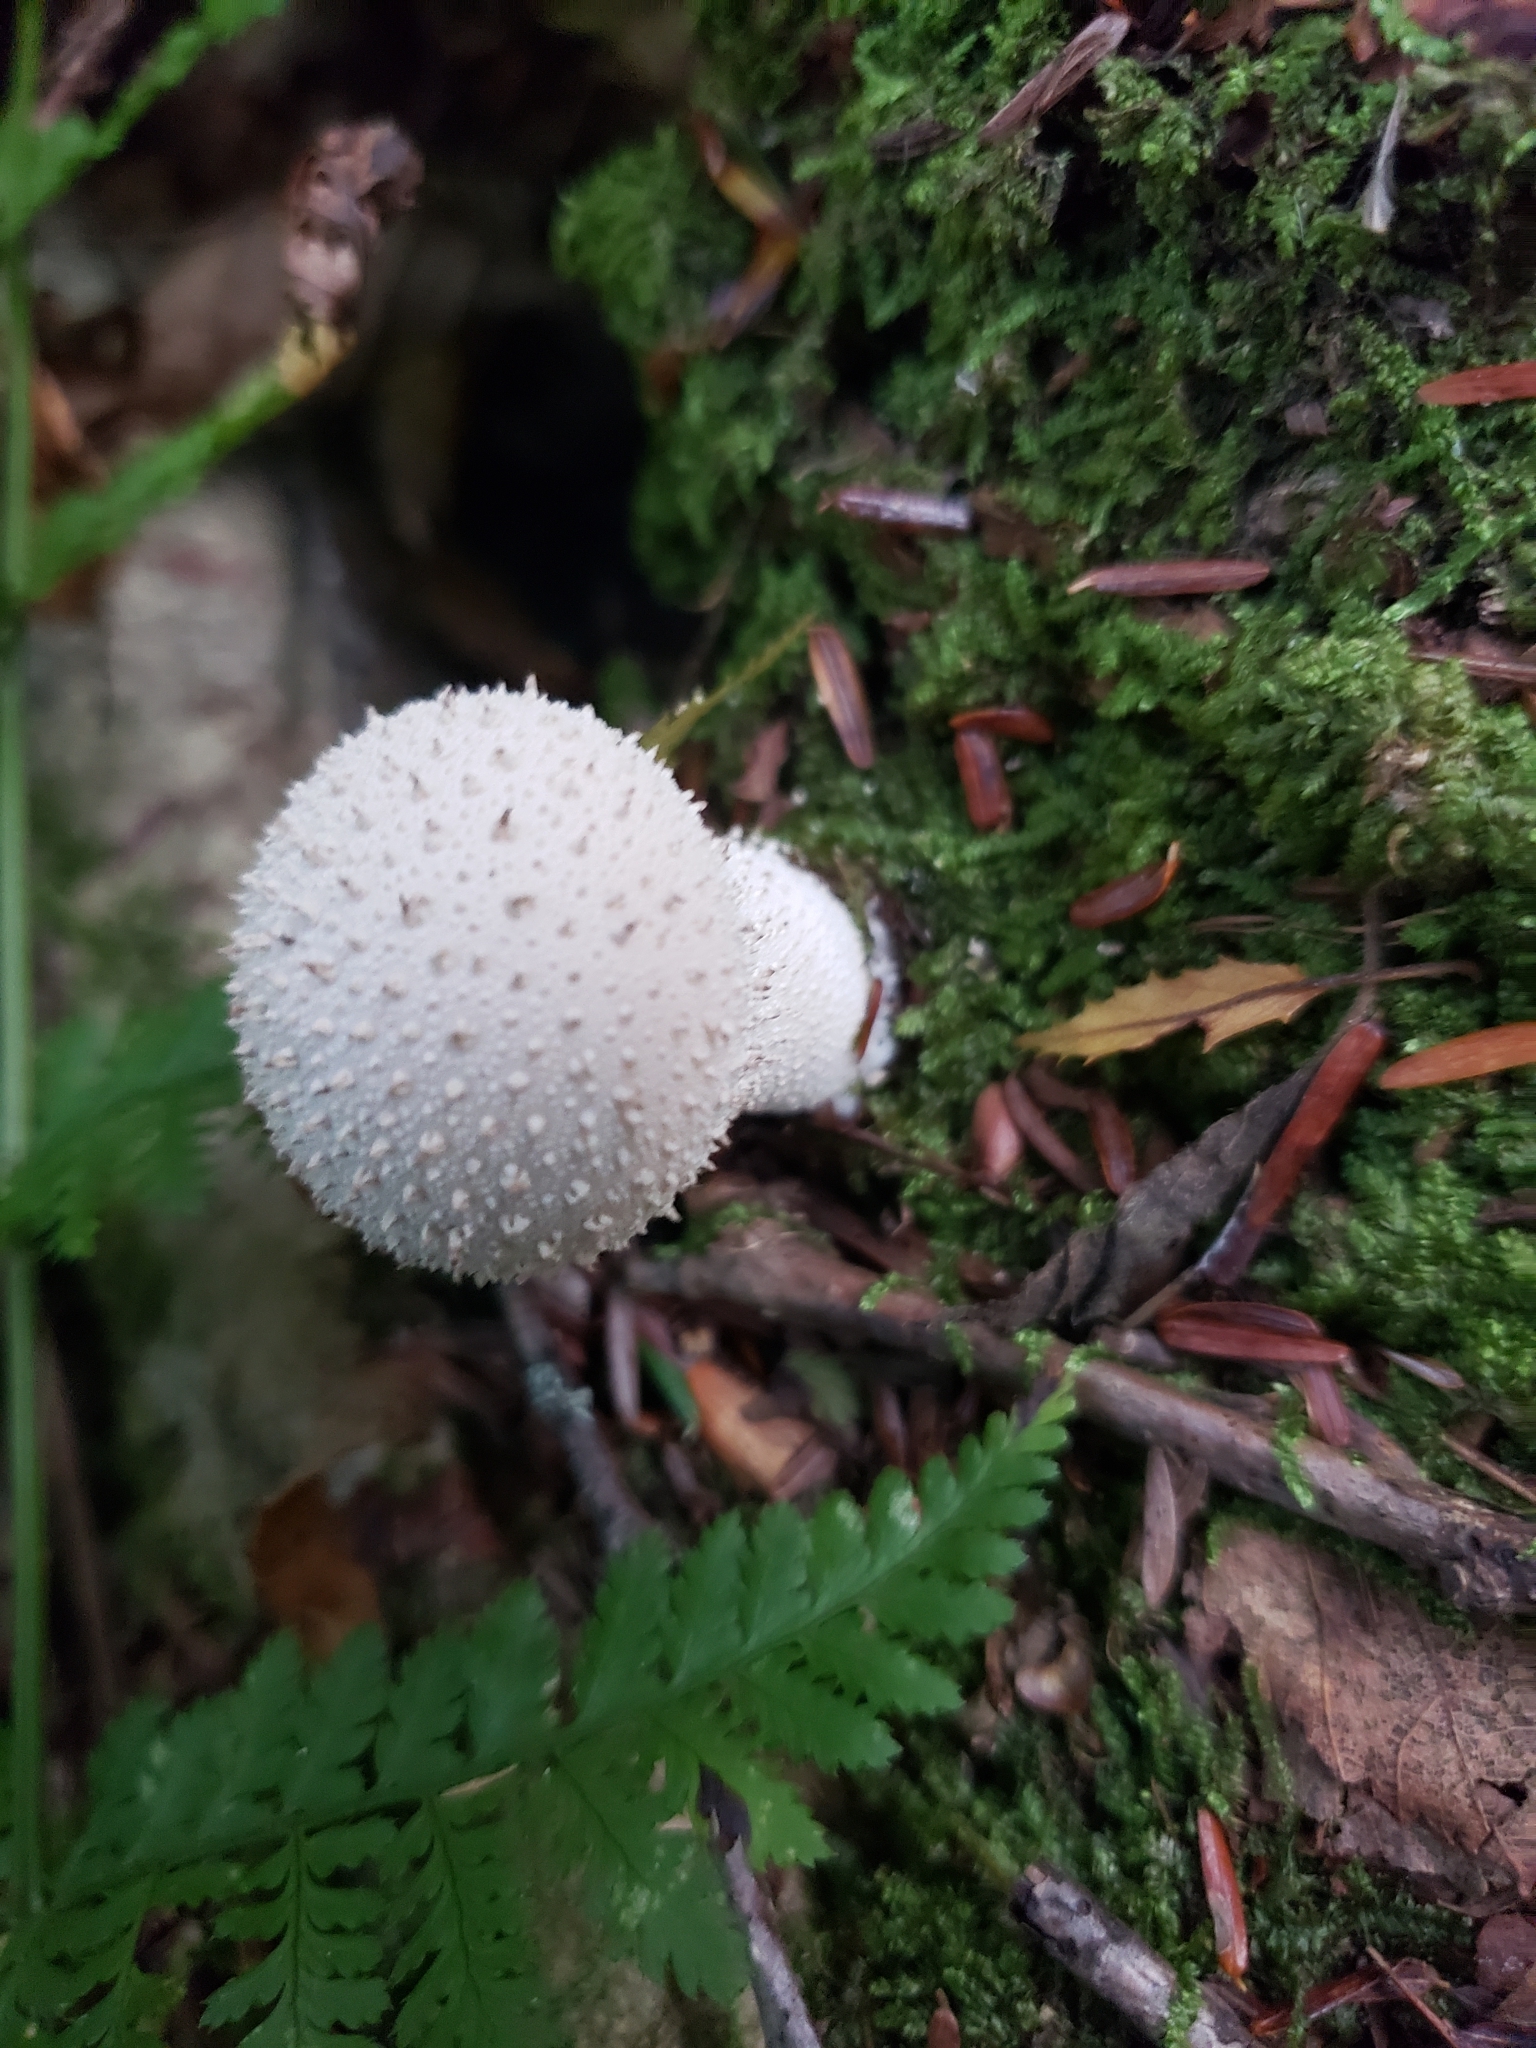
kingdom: Fungi
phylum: Basidiomycota
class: Agaricomycetes
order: Agaricales
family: Lycoperdaceae
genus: Lycoperdon
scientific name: Lycoperdon perlatum
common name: Common puffball
